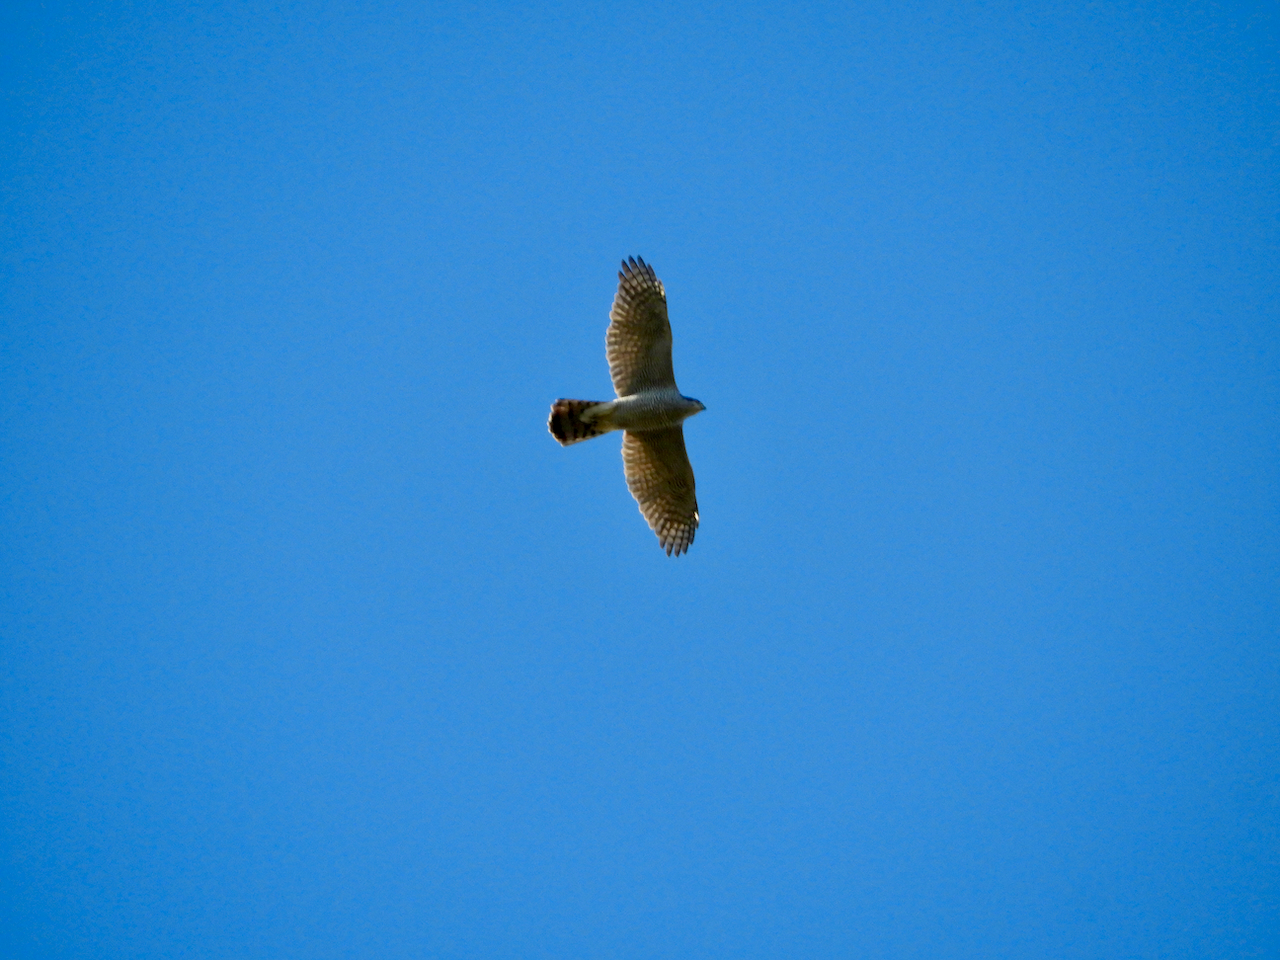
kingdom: Animalia
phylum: Chordata
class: Aves
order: Accipitriformes
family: Accipitridae
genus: Accipiter
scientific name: Accipiter gentilis
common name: Northern goshawk
